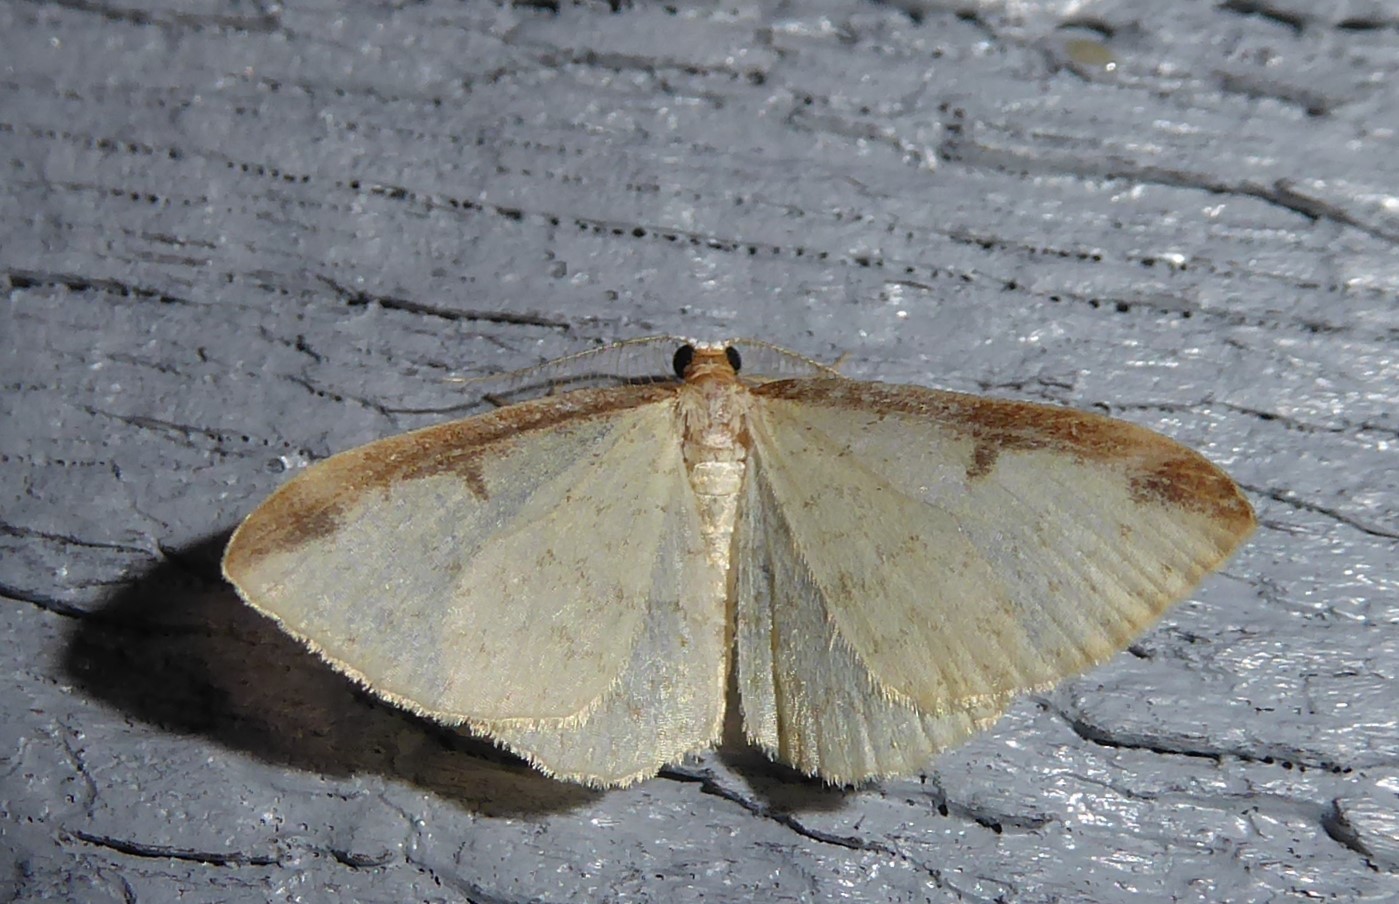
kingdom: Animalia
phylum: Arthropoda
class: Insecta
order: Lepidoptera
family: Geometridae
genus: Epiphryne
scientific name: Epiphryne undosata
